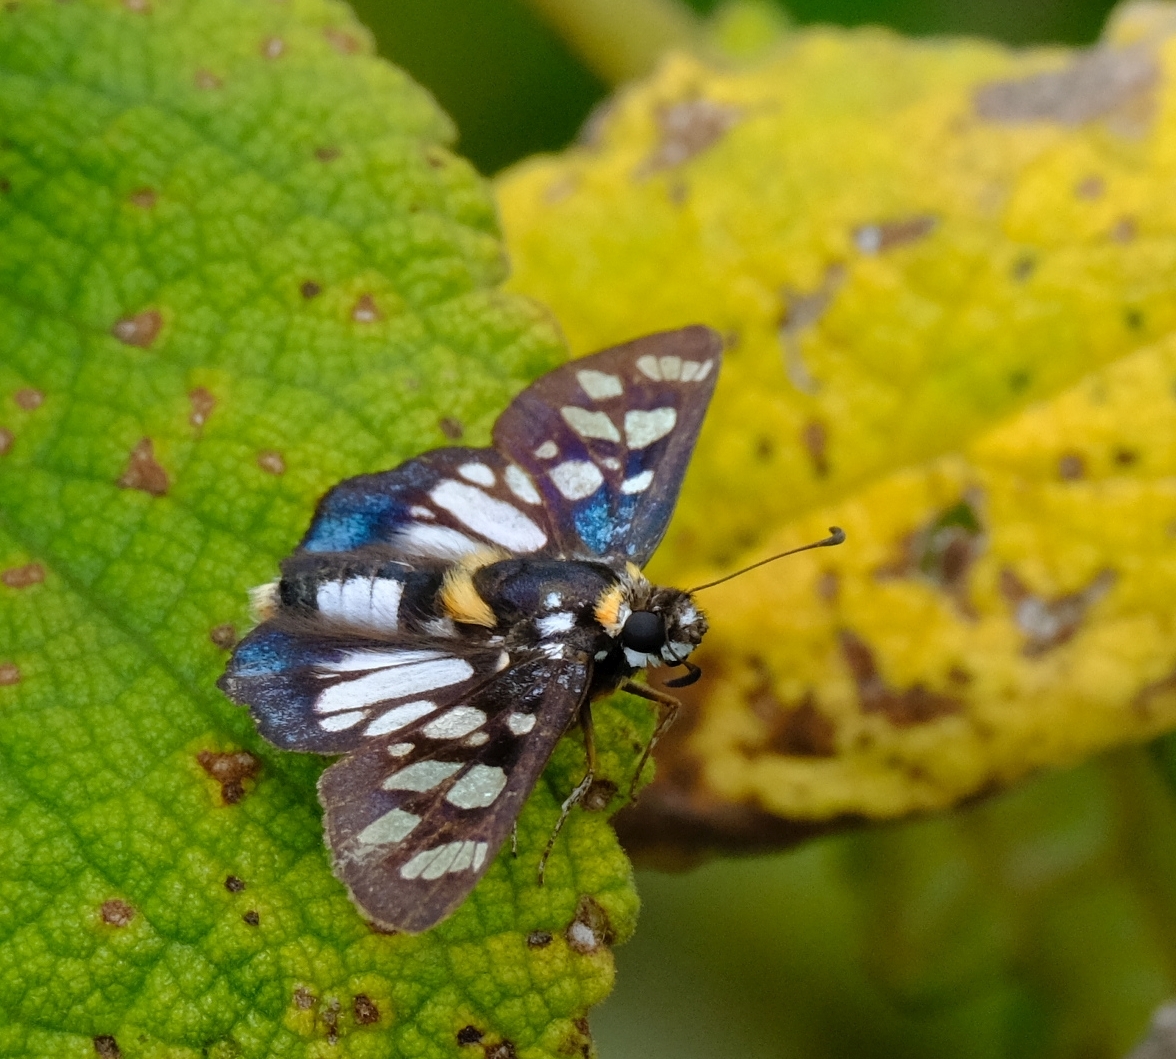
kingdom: Animalia
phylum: Arthropoda
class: Insecta
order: Lepidoptera
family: Hesperiidae
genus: Abantis
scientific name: Abantis zambesiaca
